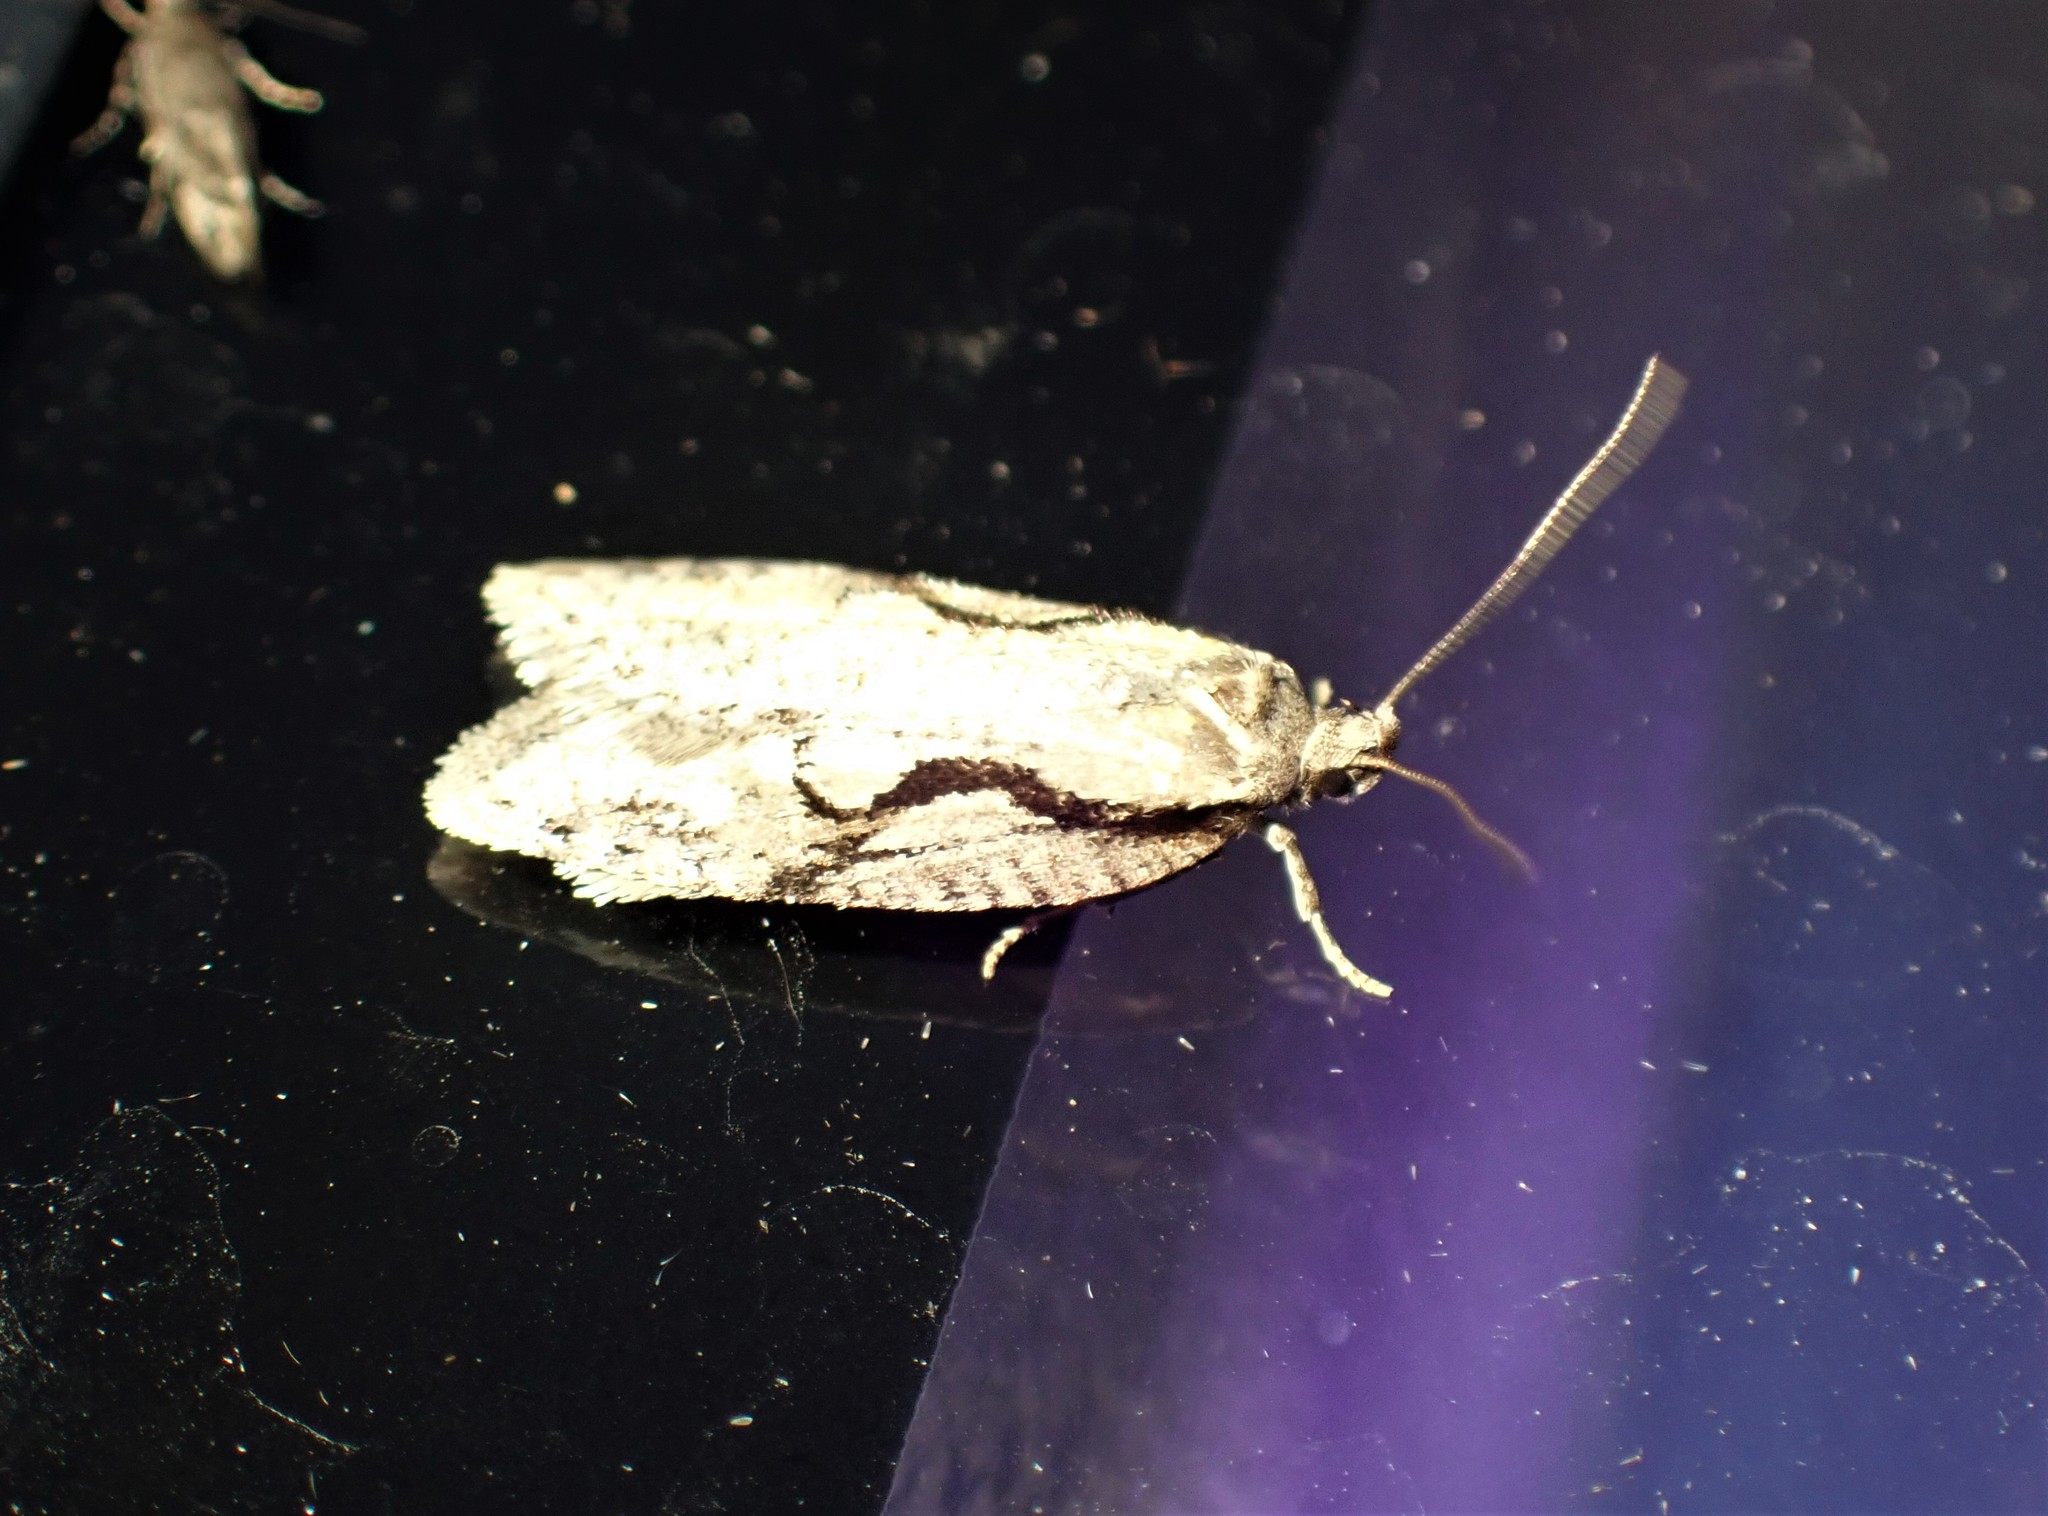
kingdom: Animalia
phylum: Arthropoda
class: Insecta
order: Lepidoptera
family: Depressariidae
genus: Semioscopis
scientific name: Semioscopis packardella
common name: Packard's concealer moth
